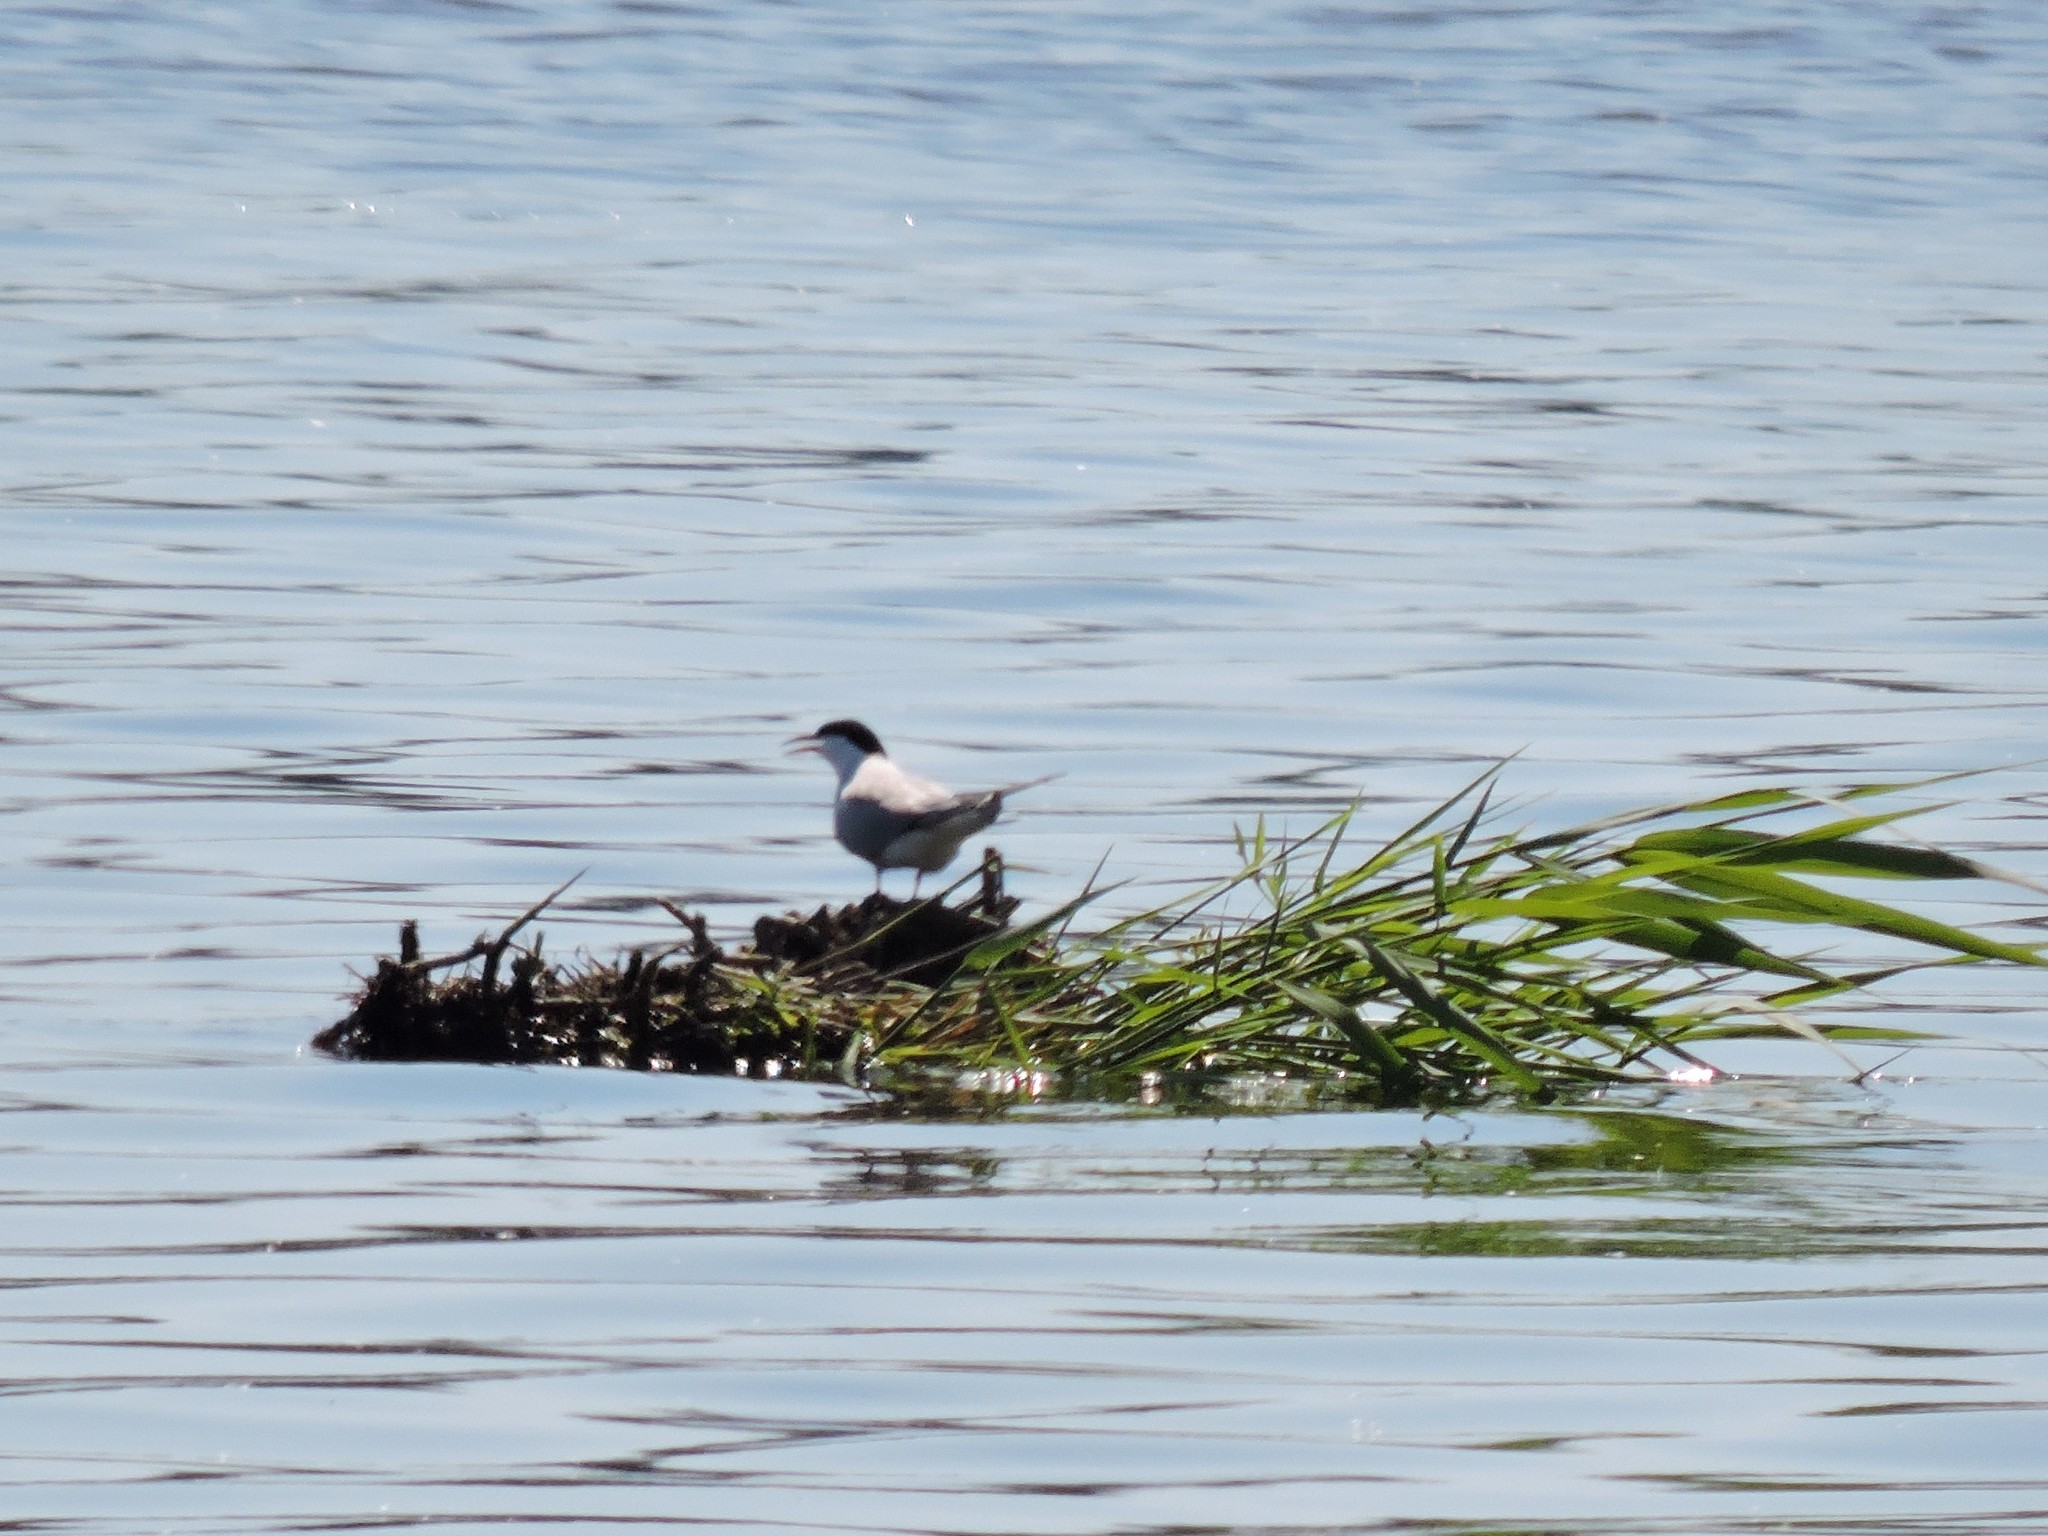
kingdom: Animalia
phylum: Chordata
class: Aves
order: Charadriiformes
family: Laridae
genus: Sterna
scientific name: Sterna hirundo
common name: Common tern
